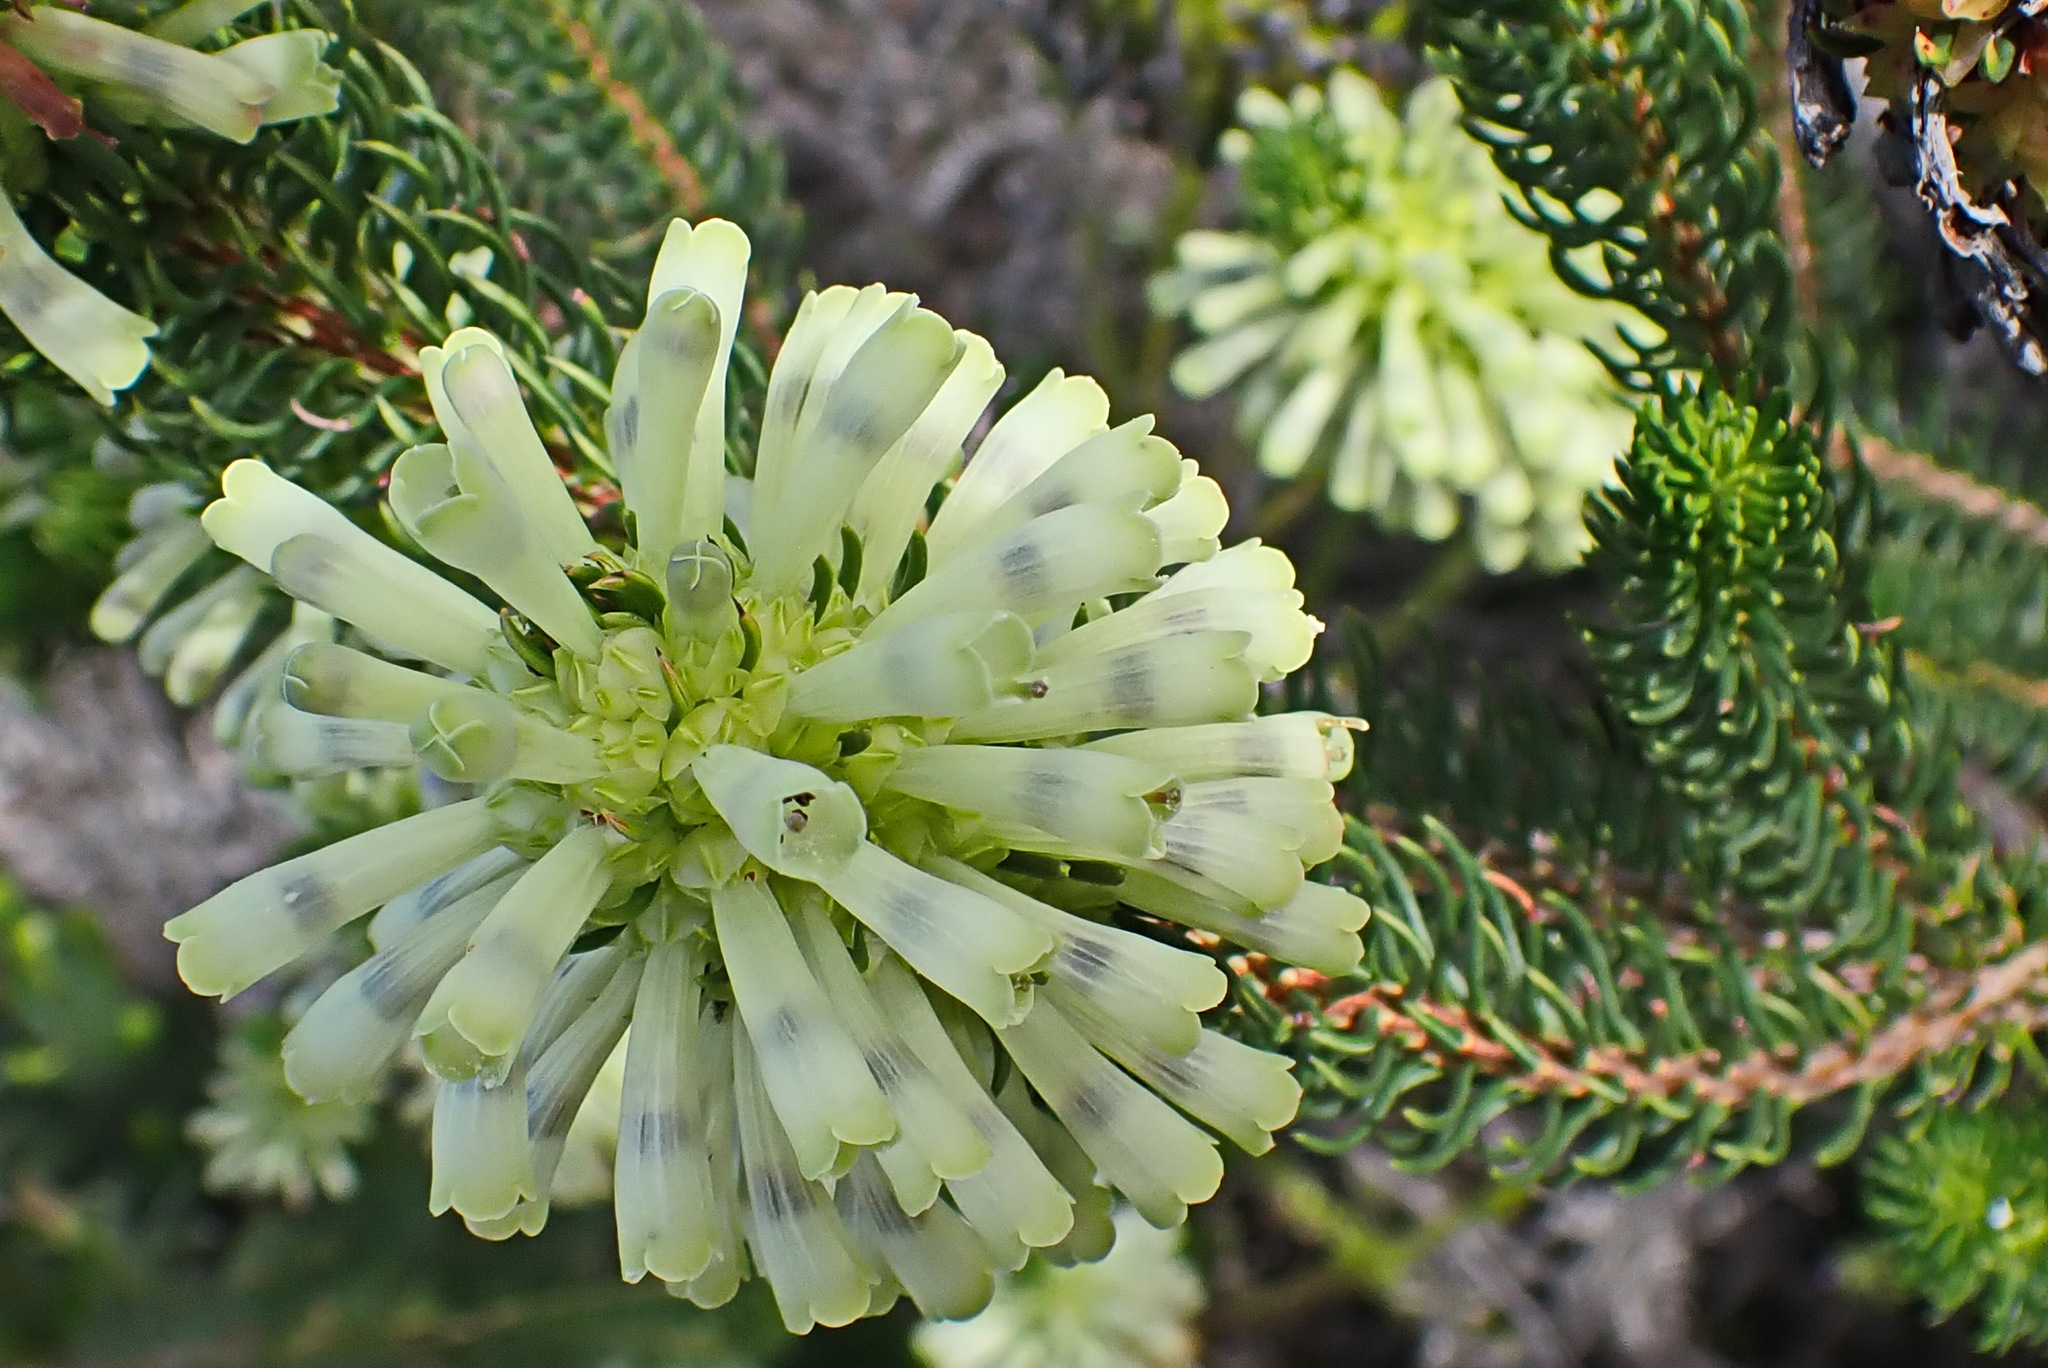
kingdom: Plantae
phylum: Tracheophyta
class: Magnoliopsida
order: Ericales
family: Ericaceae
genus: Erica
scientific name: Erica sessiliflora
